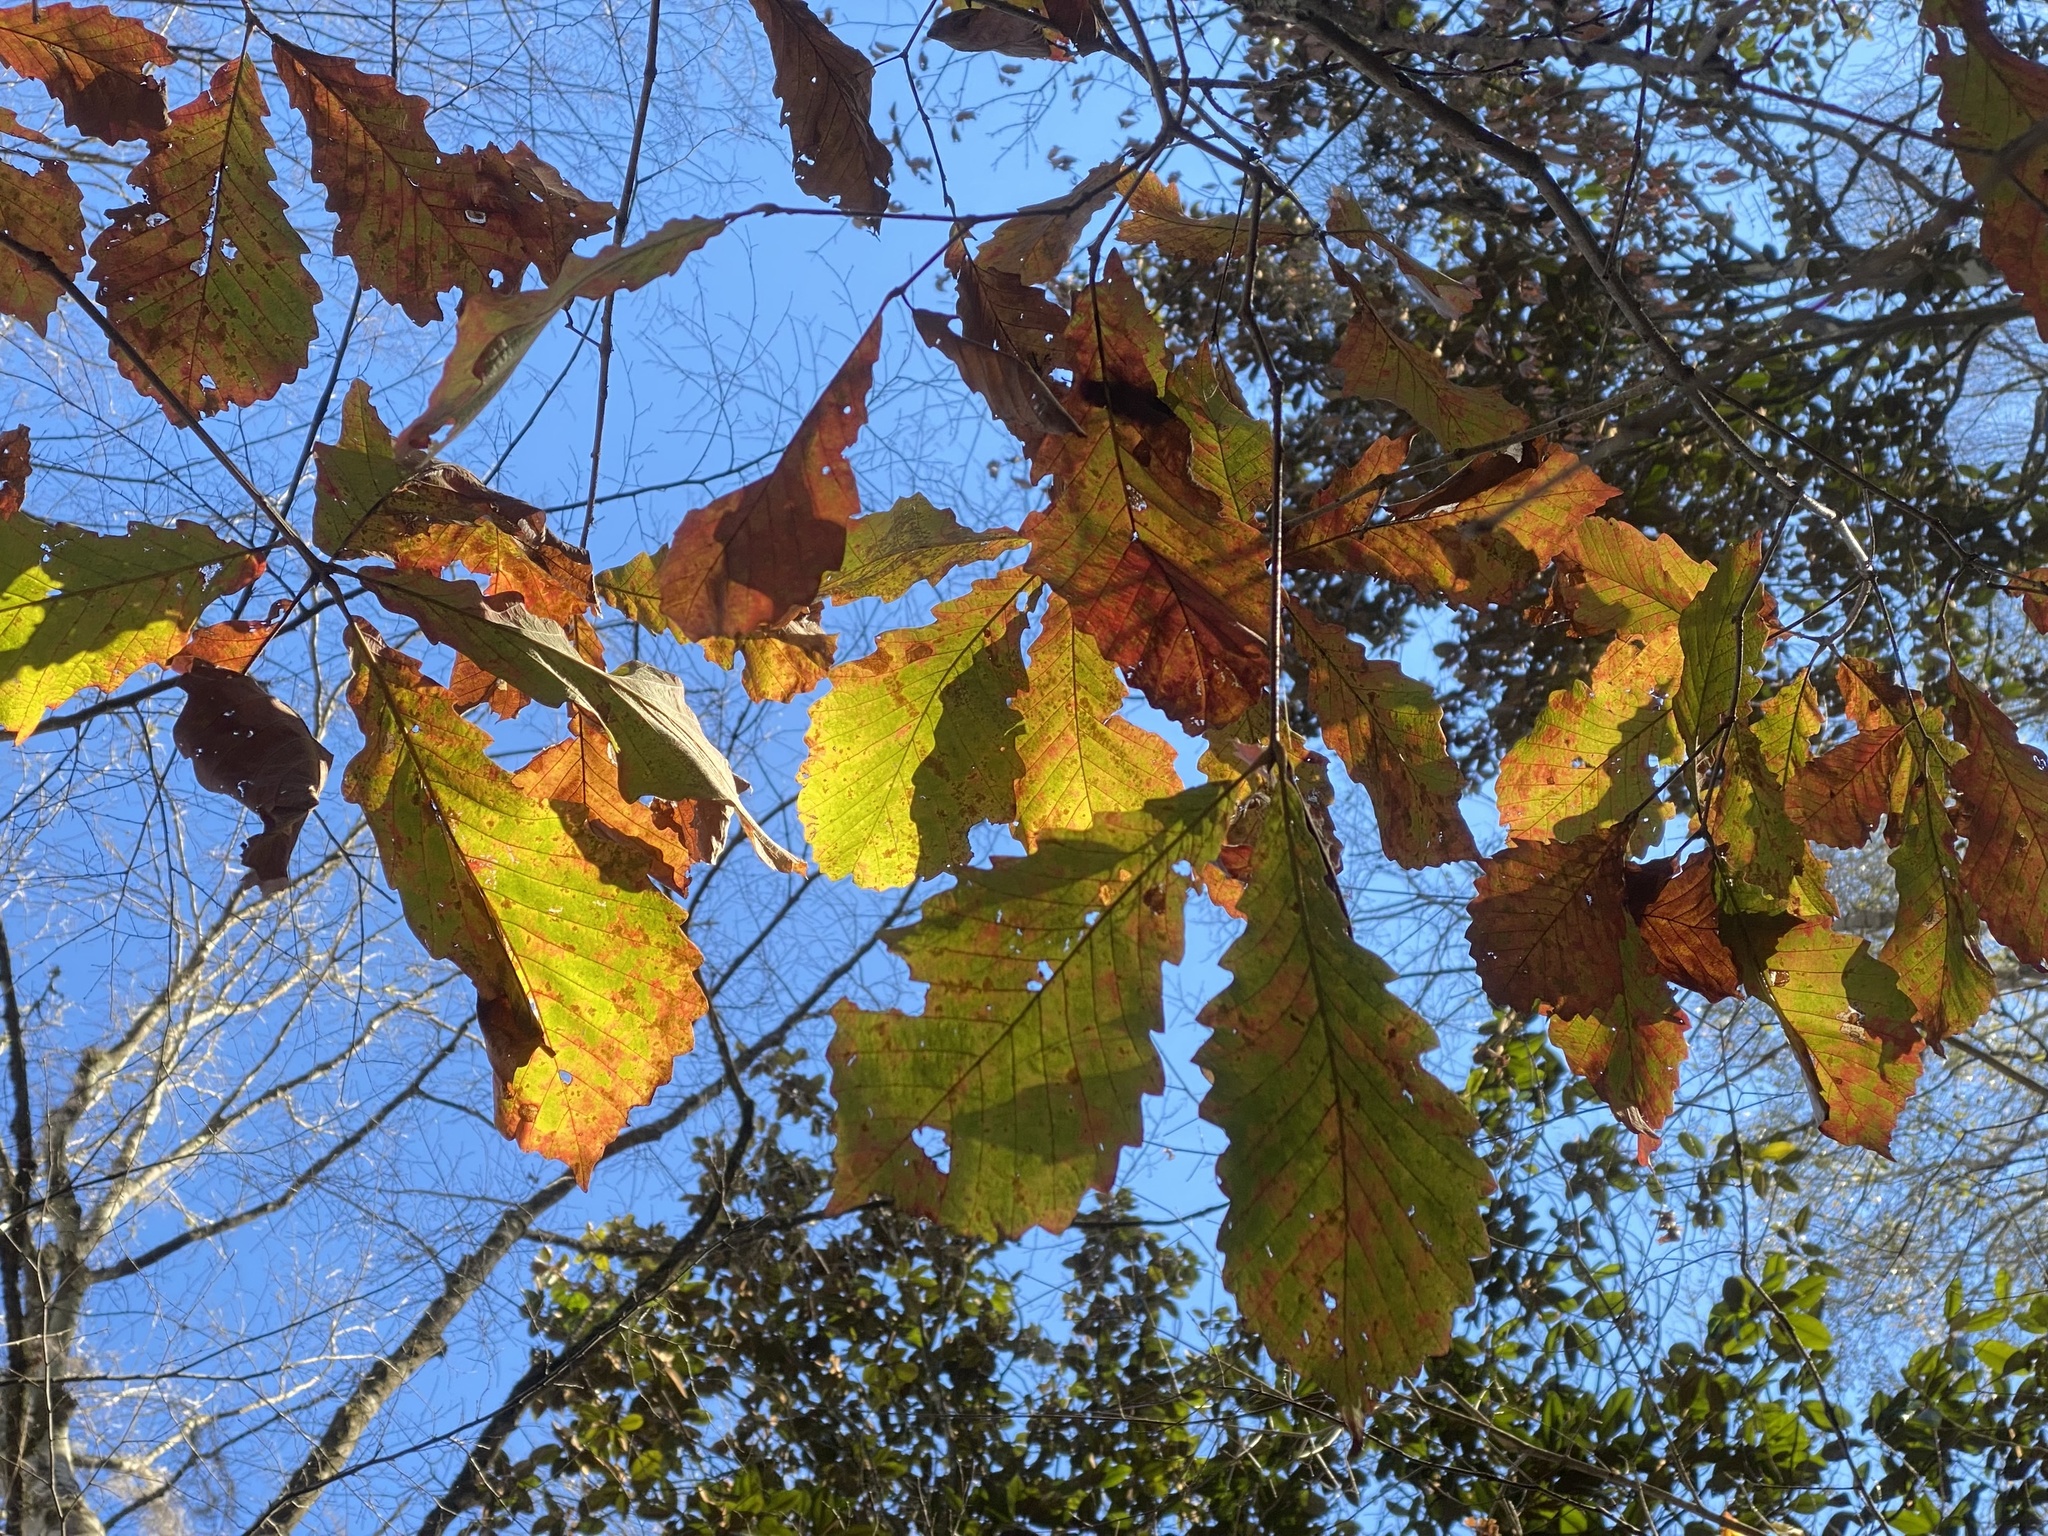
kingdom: Plantae
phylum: Tracheophyta
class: Magnoliopsida
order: Fagales
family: Fagaceae
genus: Quercus
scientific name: Quercus michauxii
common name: Swamp chestnut oak
